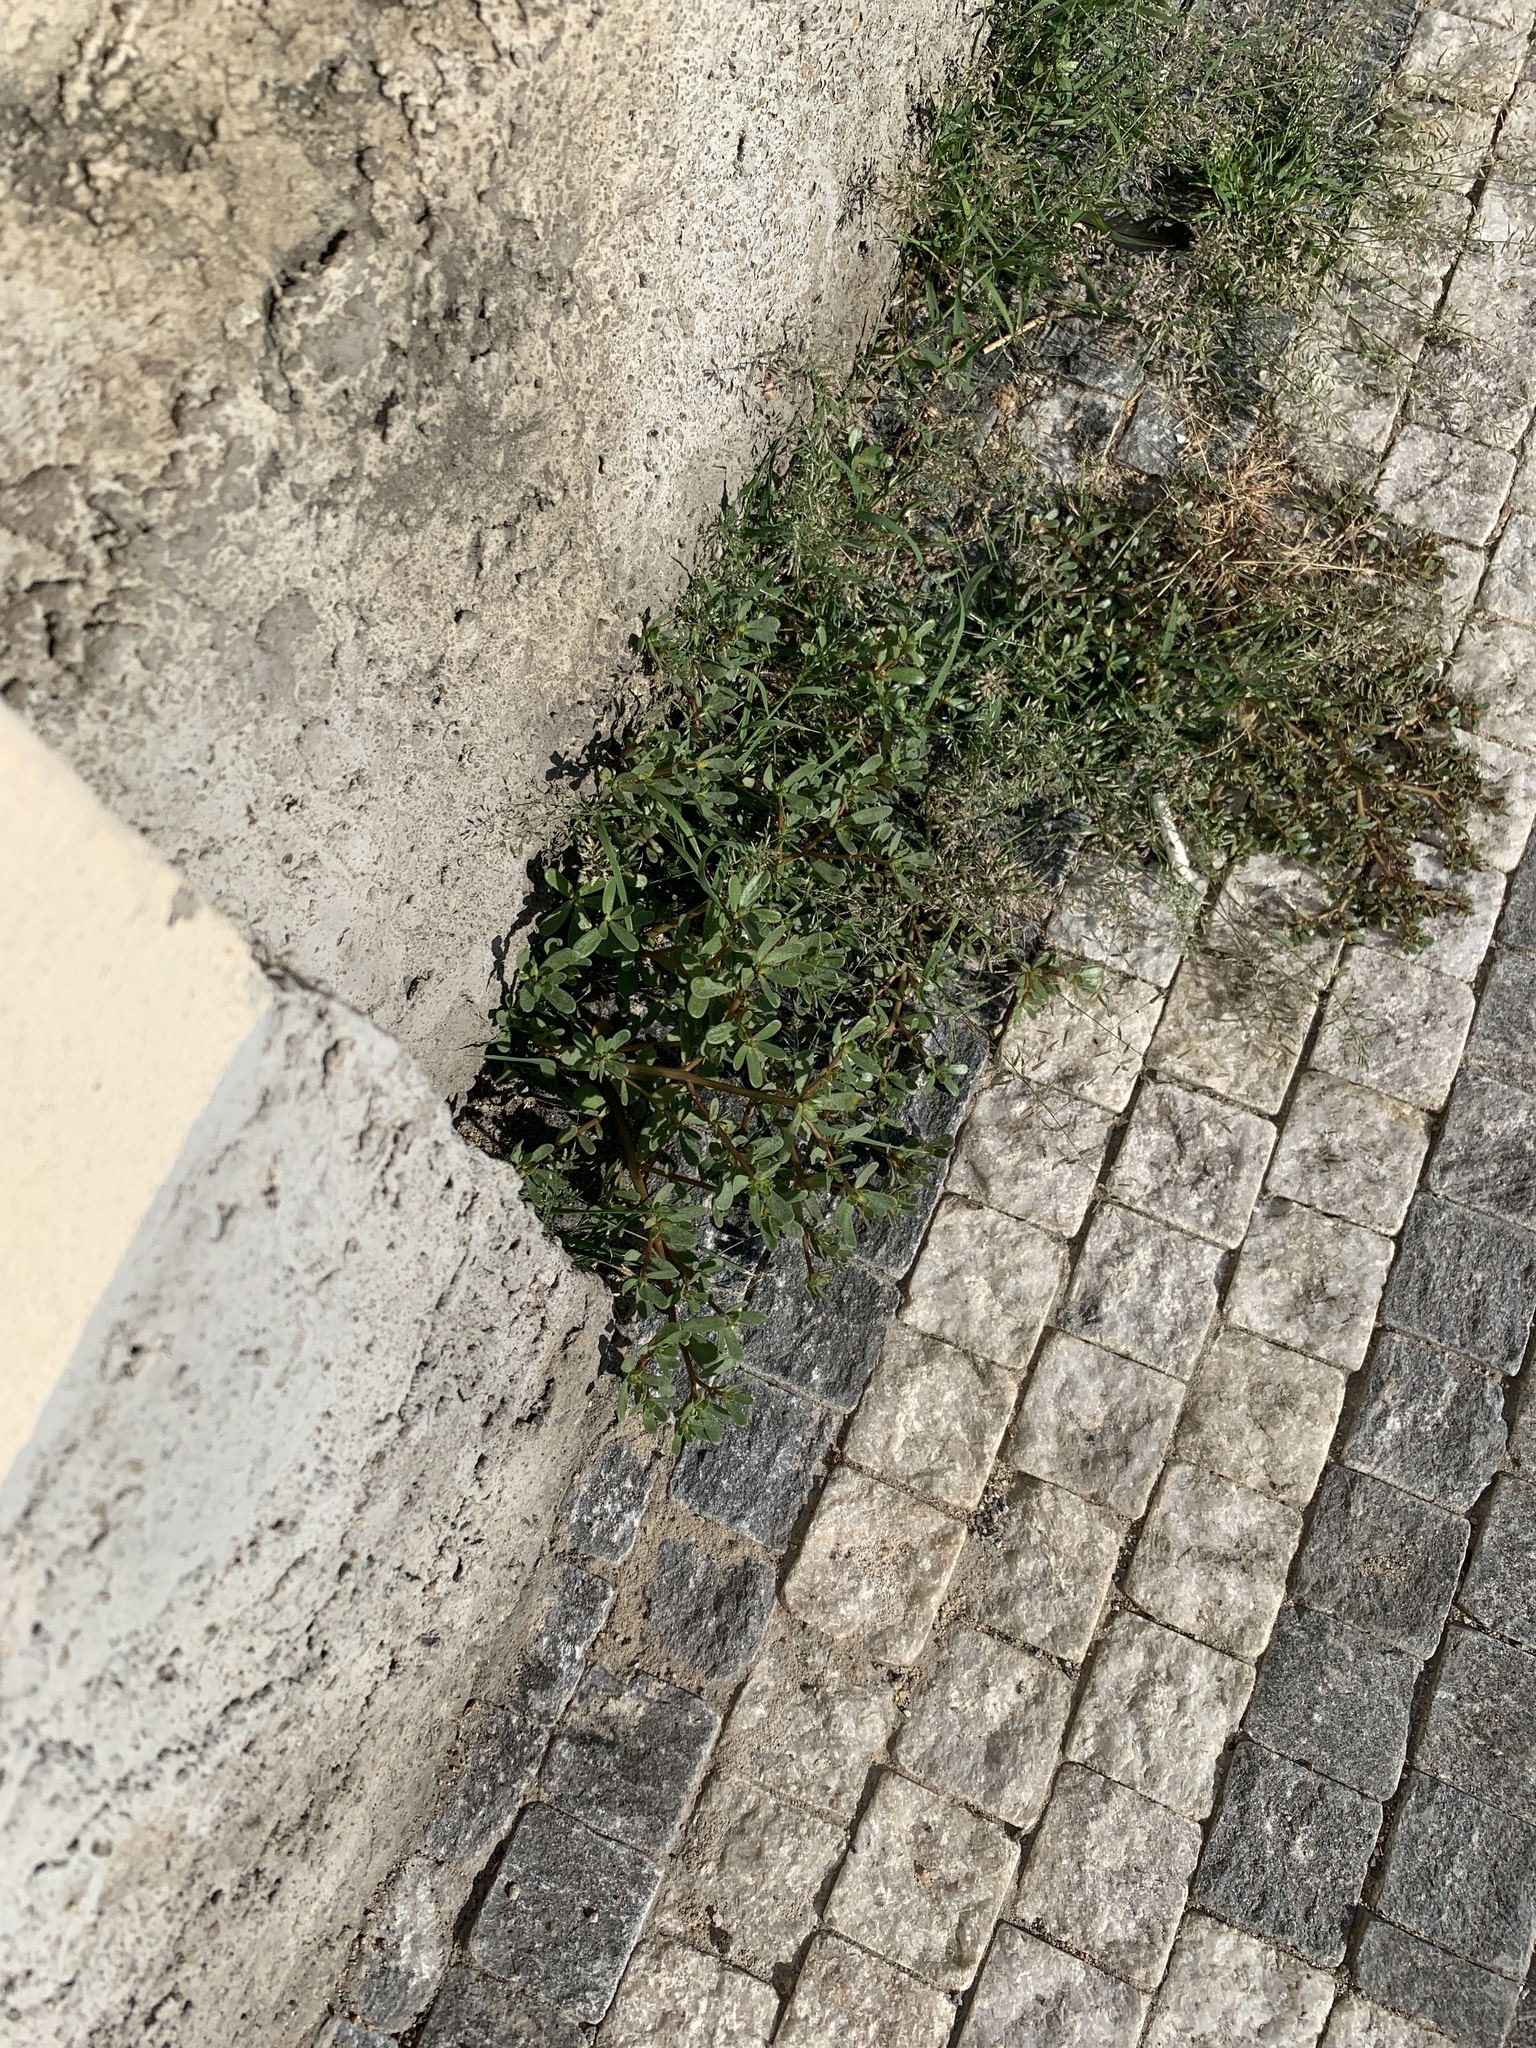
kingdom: Plantae
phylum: Tracheophyta
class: Magnoliopsida
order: Caryophyllales
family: Portulacaceae
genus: Portulaca
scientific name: Portulaca oleracea
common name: Common purslane
